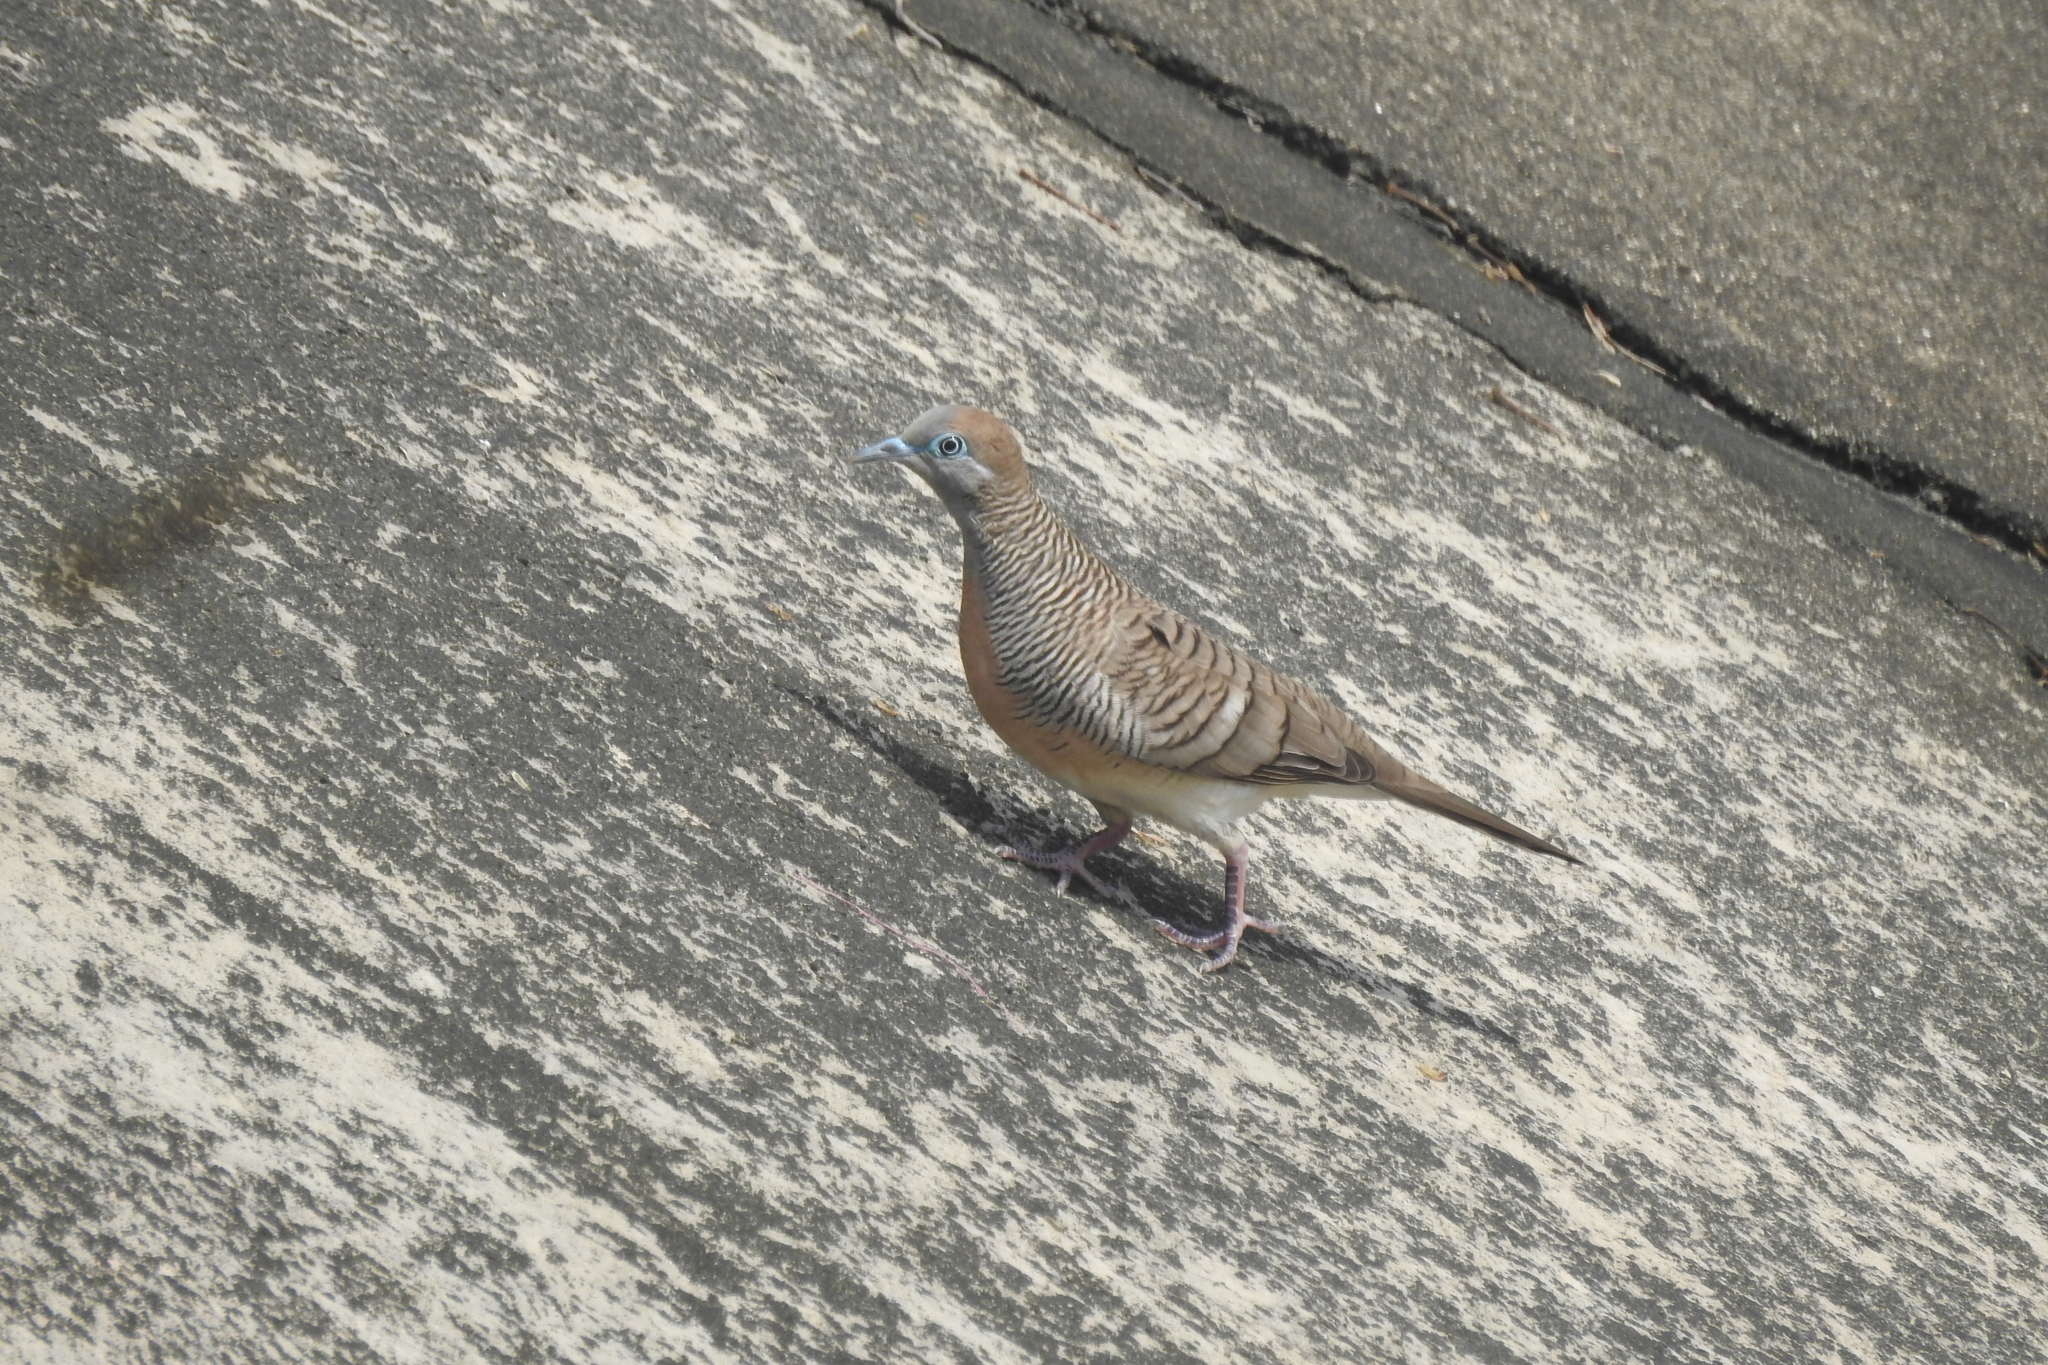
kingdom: Animalia
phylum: Chordata
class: Aves
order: Columbiformes
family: Columbidae
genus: Geopelia
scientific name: Geopelia striata
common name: Zebra dove
